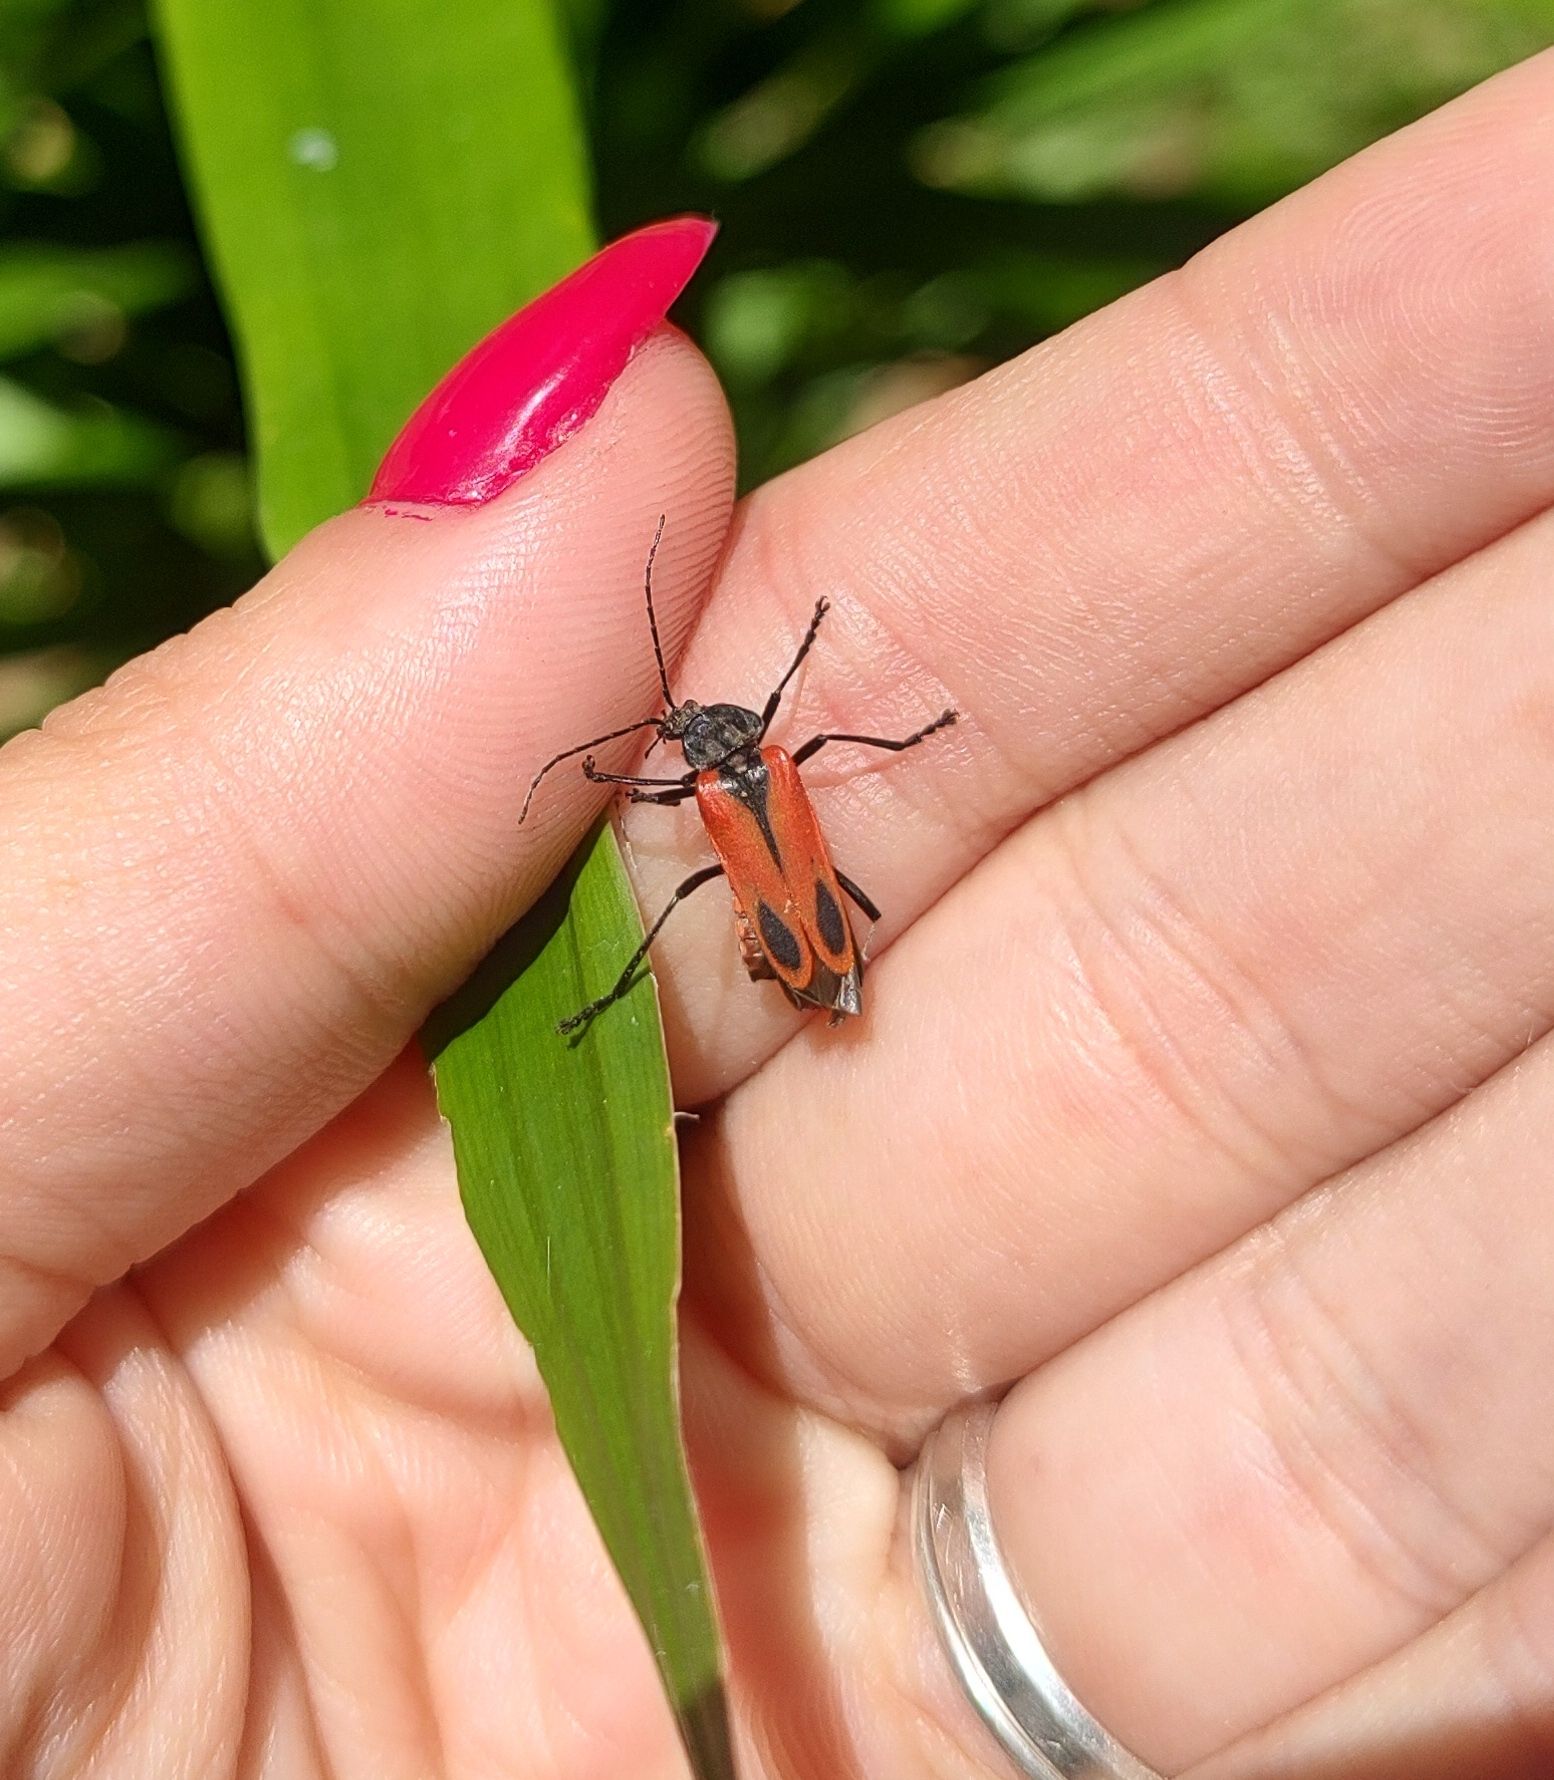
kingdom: Animalia
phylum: Arthropoda
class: Insecta
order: Coleoptera
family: Cantharidae
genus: Psilorrhynchus
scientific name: Psilorrhynchus
